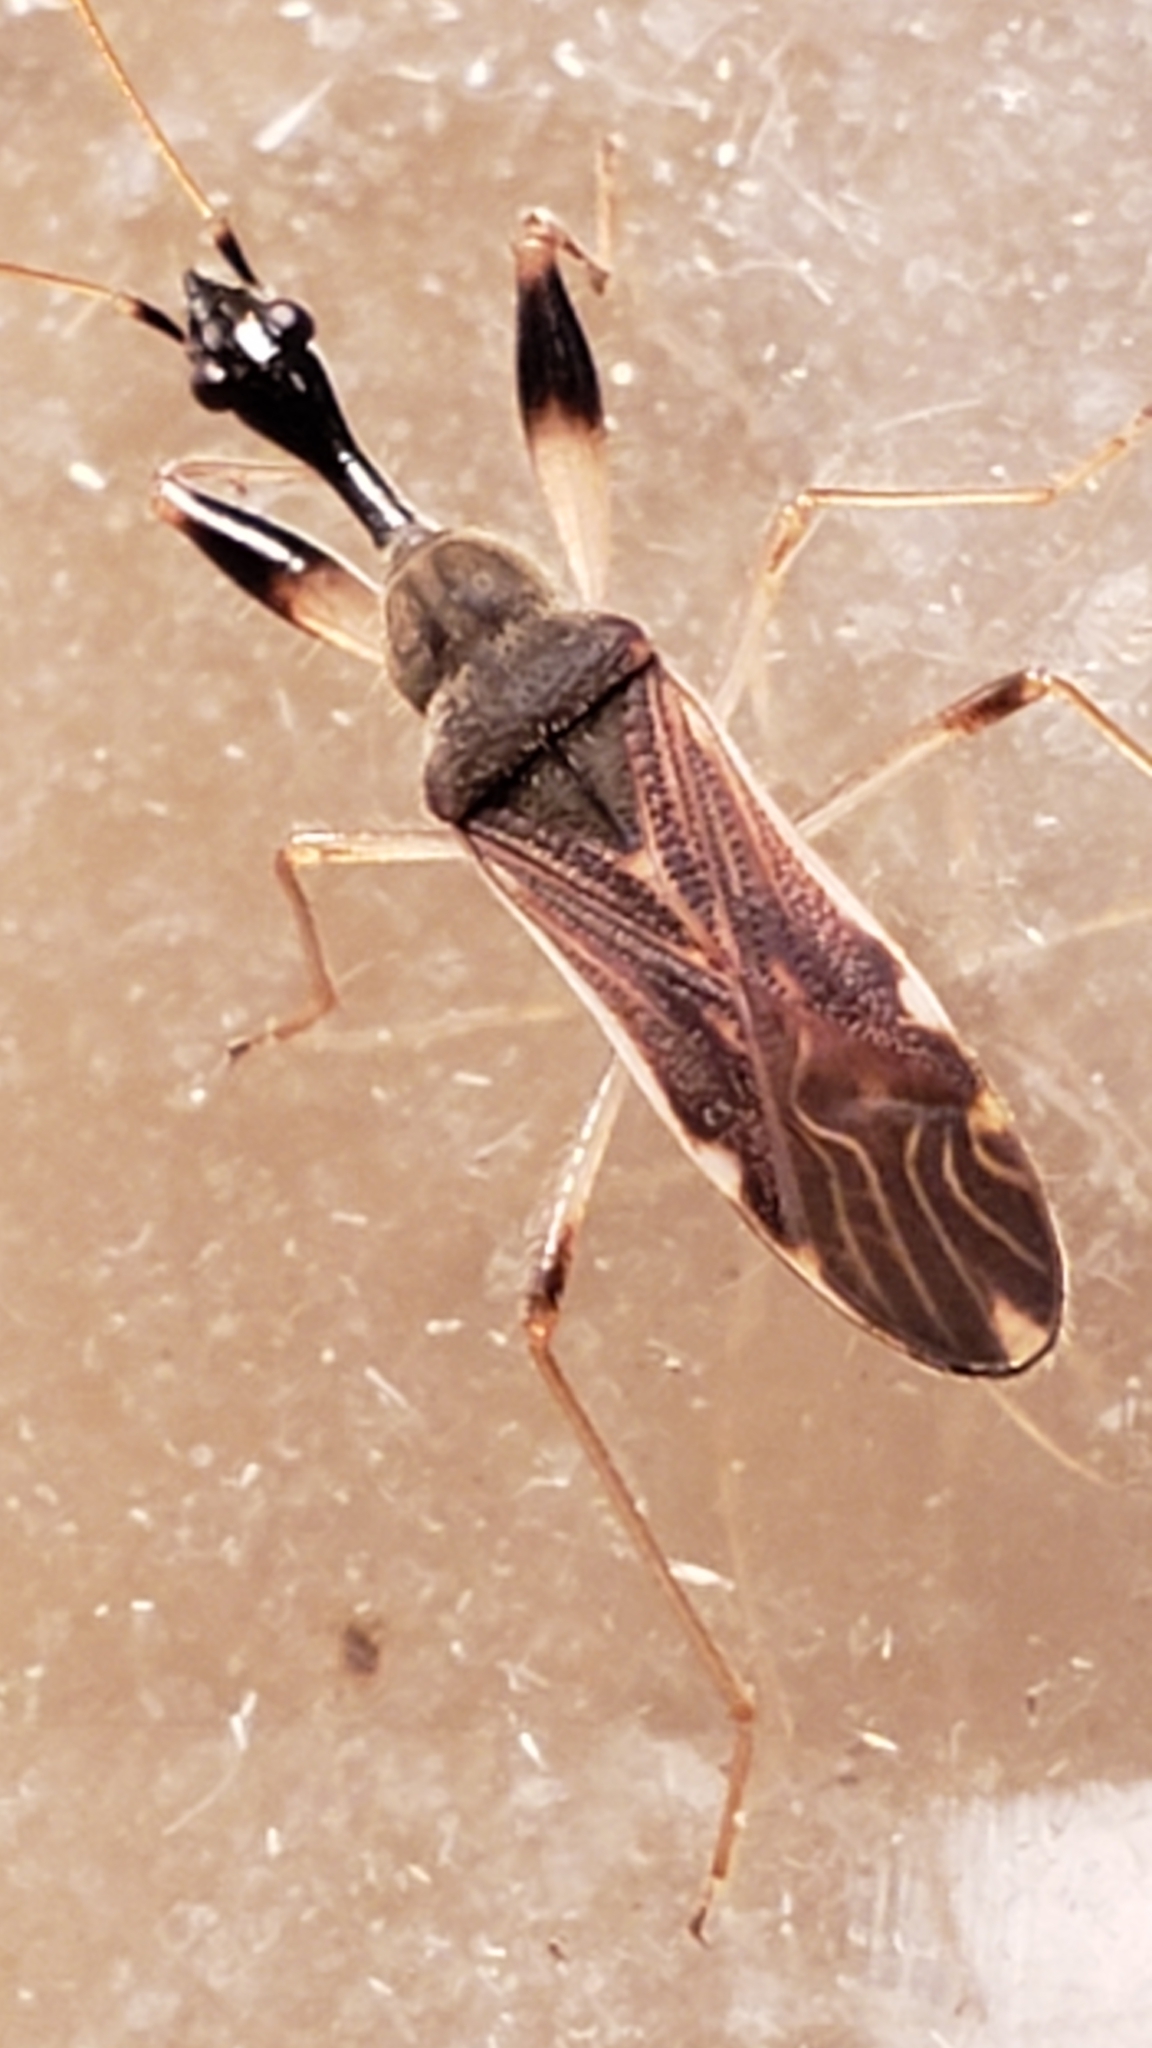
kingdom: Animalia
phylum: Arthropoda
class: Insecta
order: Hemiptera
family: Rhyparochromidae
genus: Myodocha
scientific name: Myodocha serripes
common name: Long-necked seed bug
